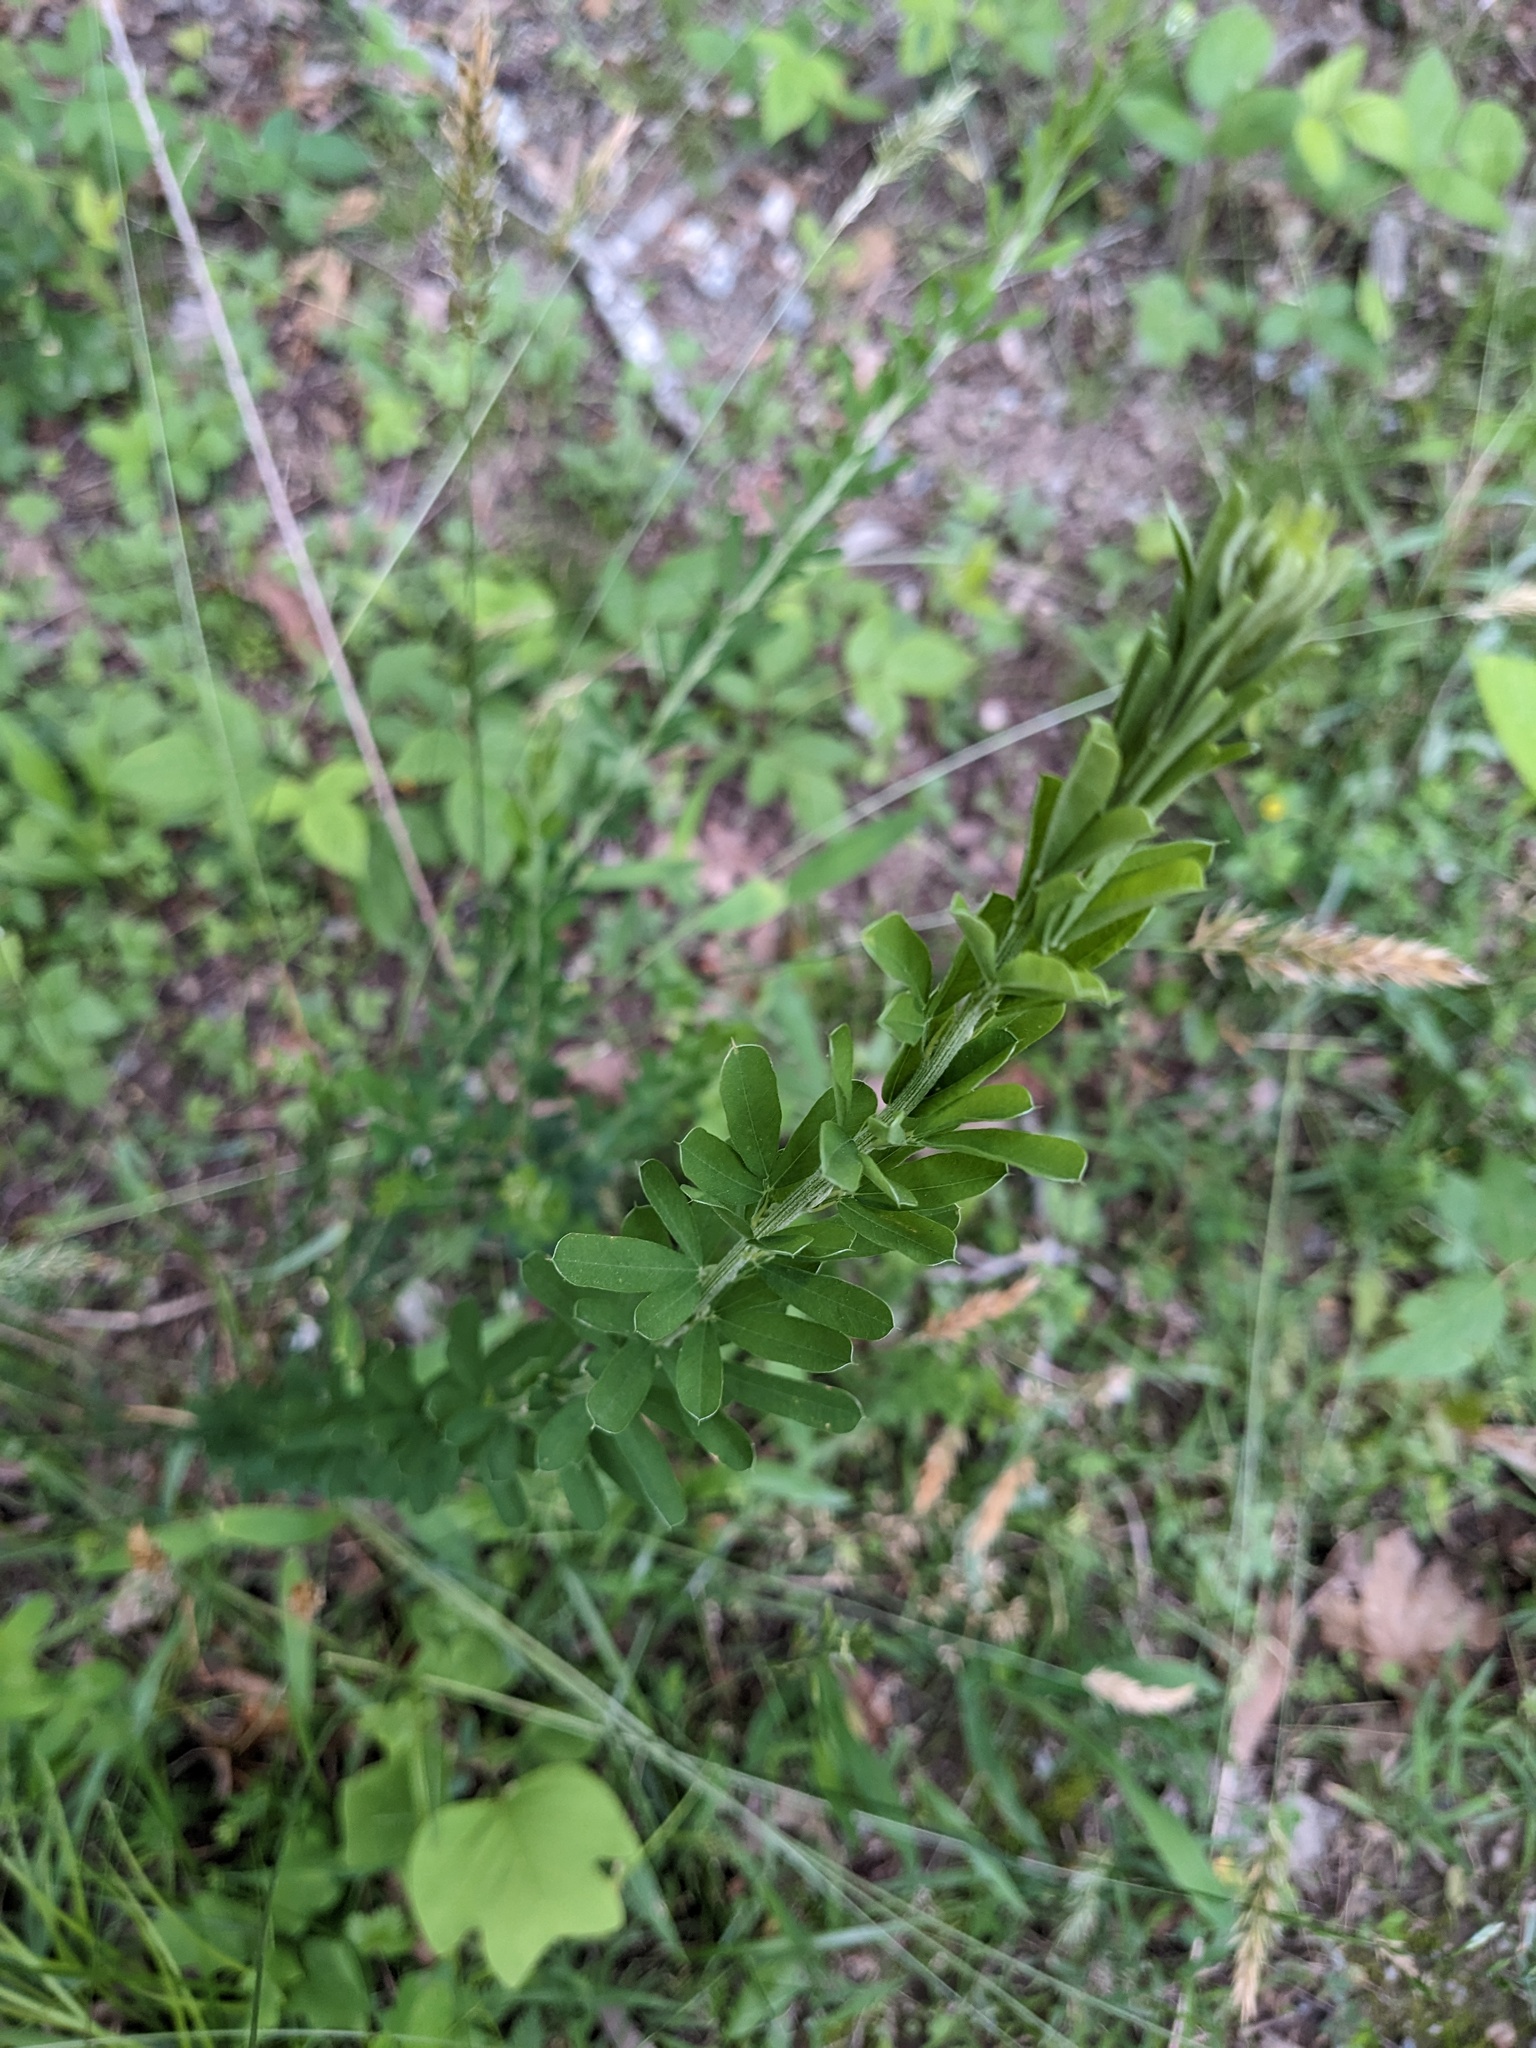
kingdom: Plantae
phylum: Tracheophyta
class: Magnoliopsida
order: Fabales
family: Fabaceae
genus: Lespedeza
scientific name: Lespedeza cuneata
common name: Chinese bush-clover
